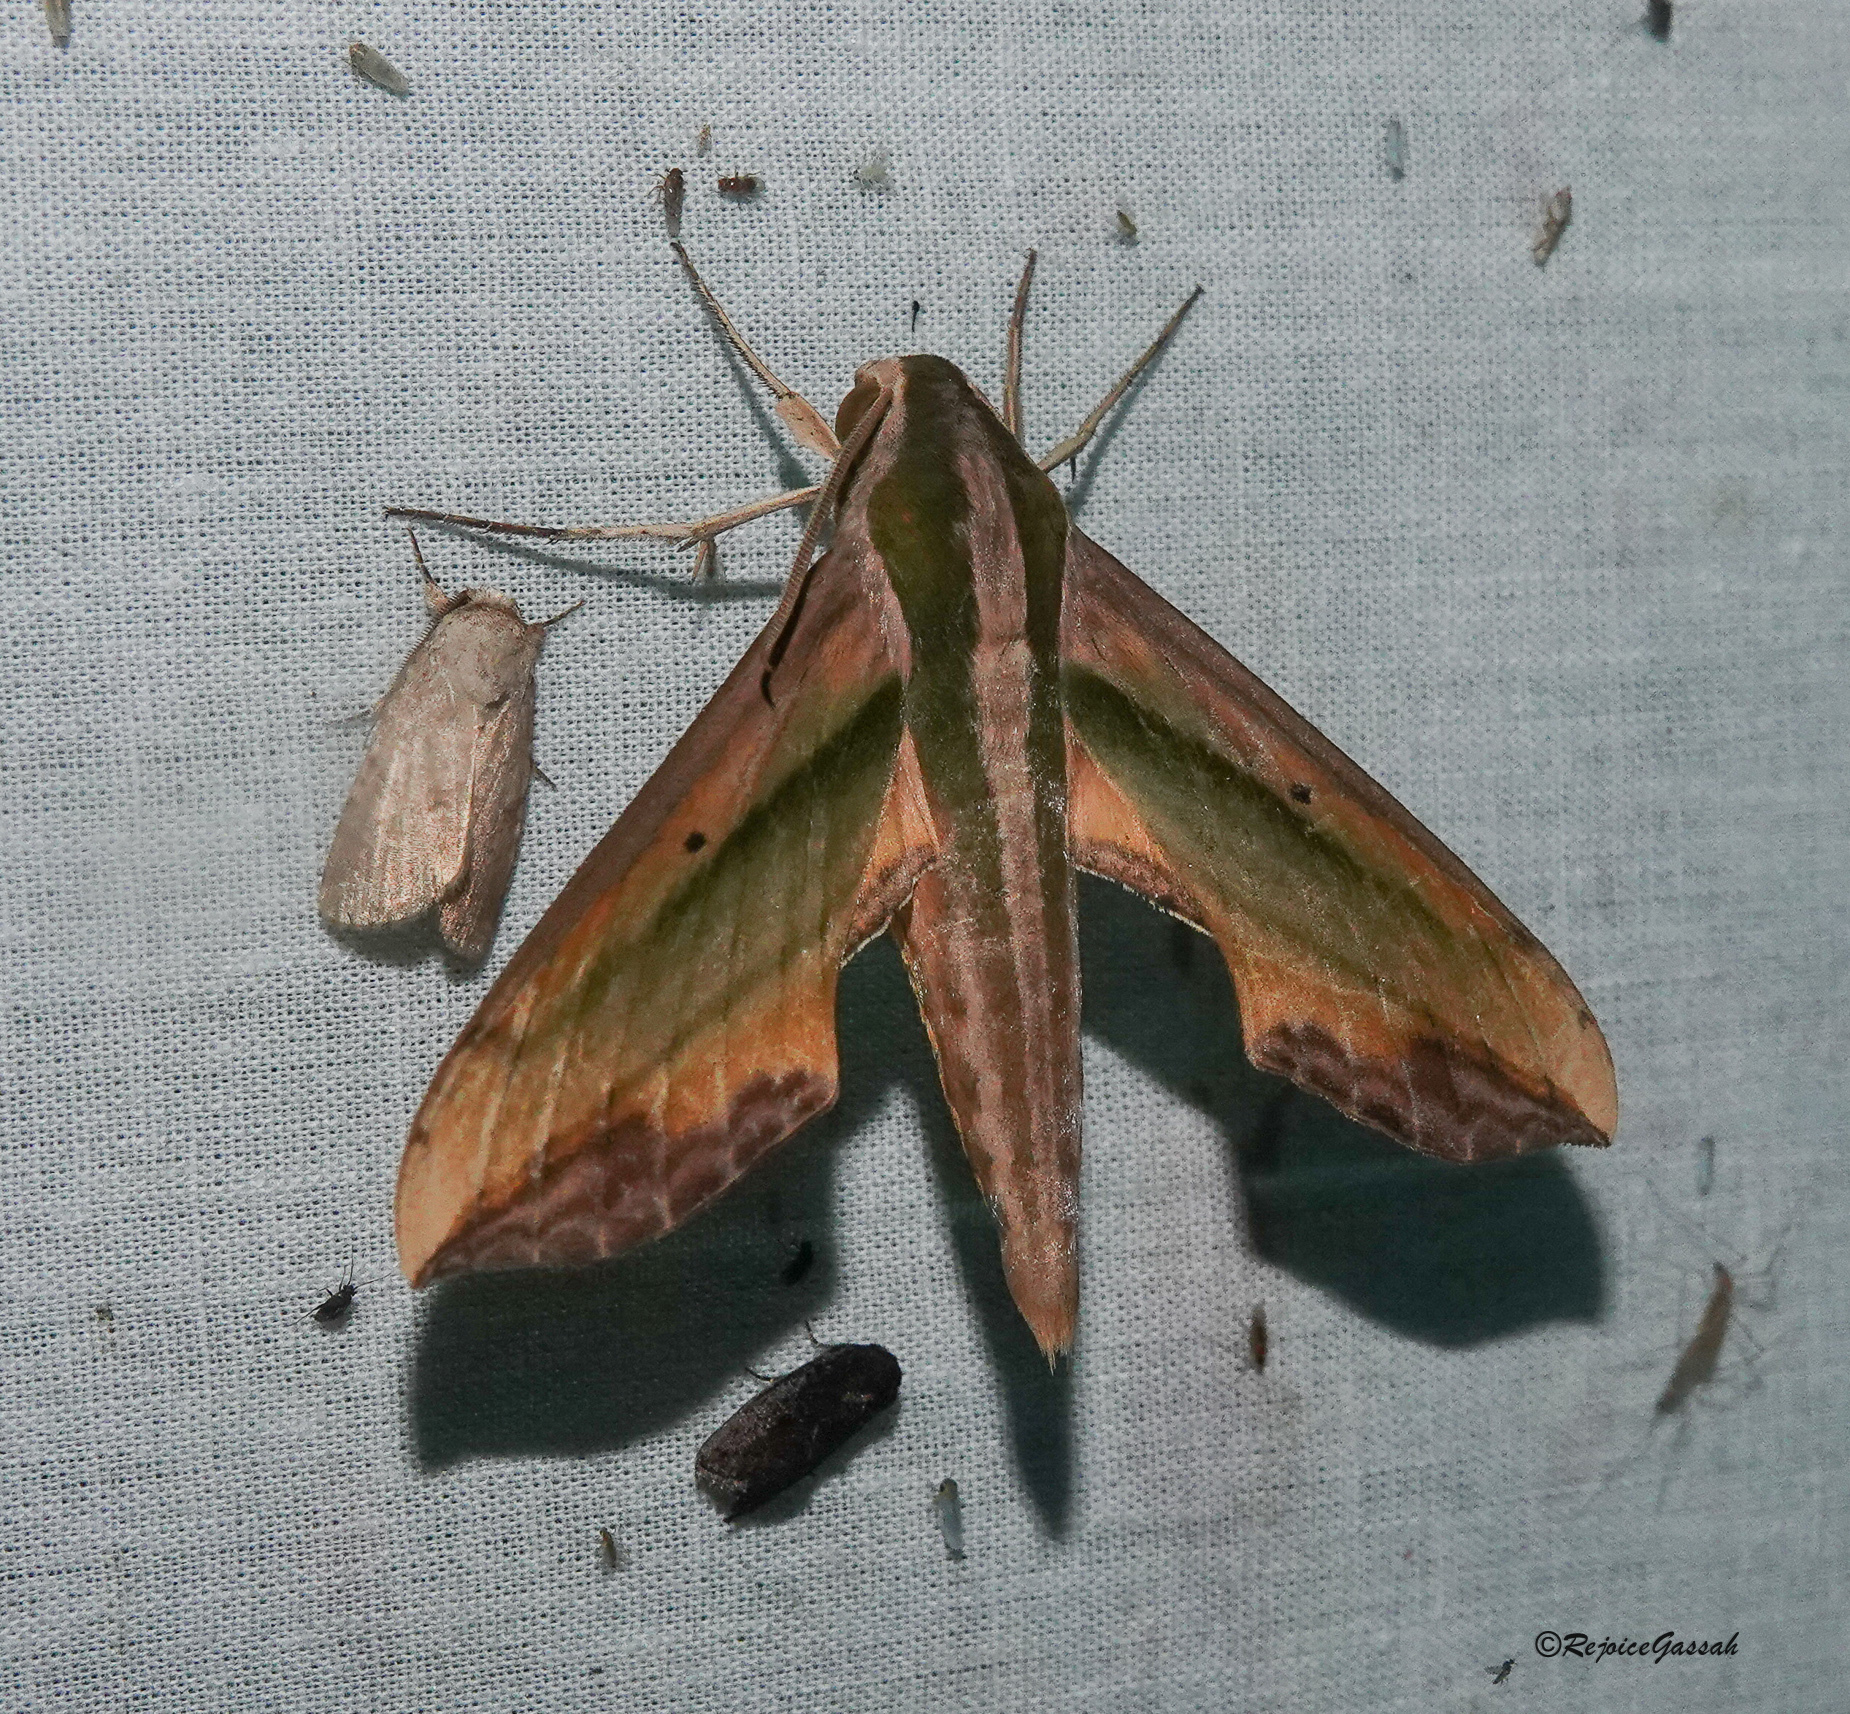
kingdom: Animalia
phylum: Arthropoda
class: Insecta
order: Lepidoptera
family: Sphingidae
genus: Pergesa
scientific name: Pergesa acteus
